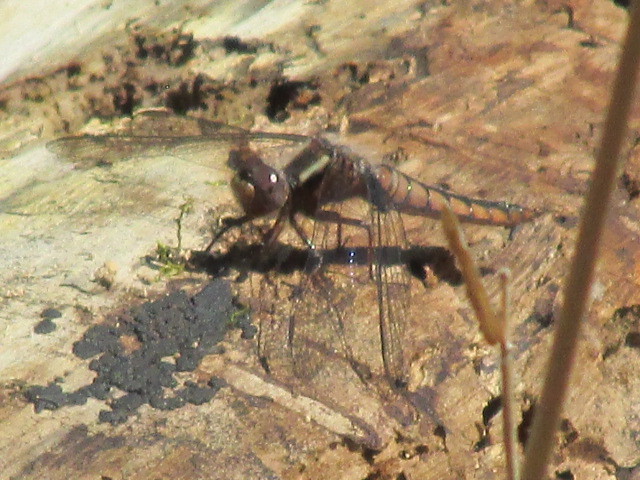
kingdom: Animalia
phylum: Arthropoda
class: Insecta
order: Odonata
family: Libellulidae
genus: Ladona
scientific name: Ladona deplanata
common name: Blue corporal
